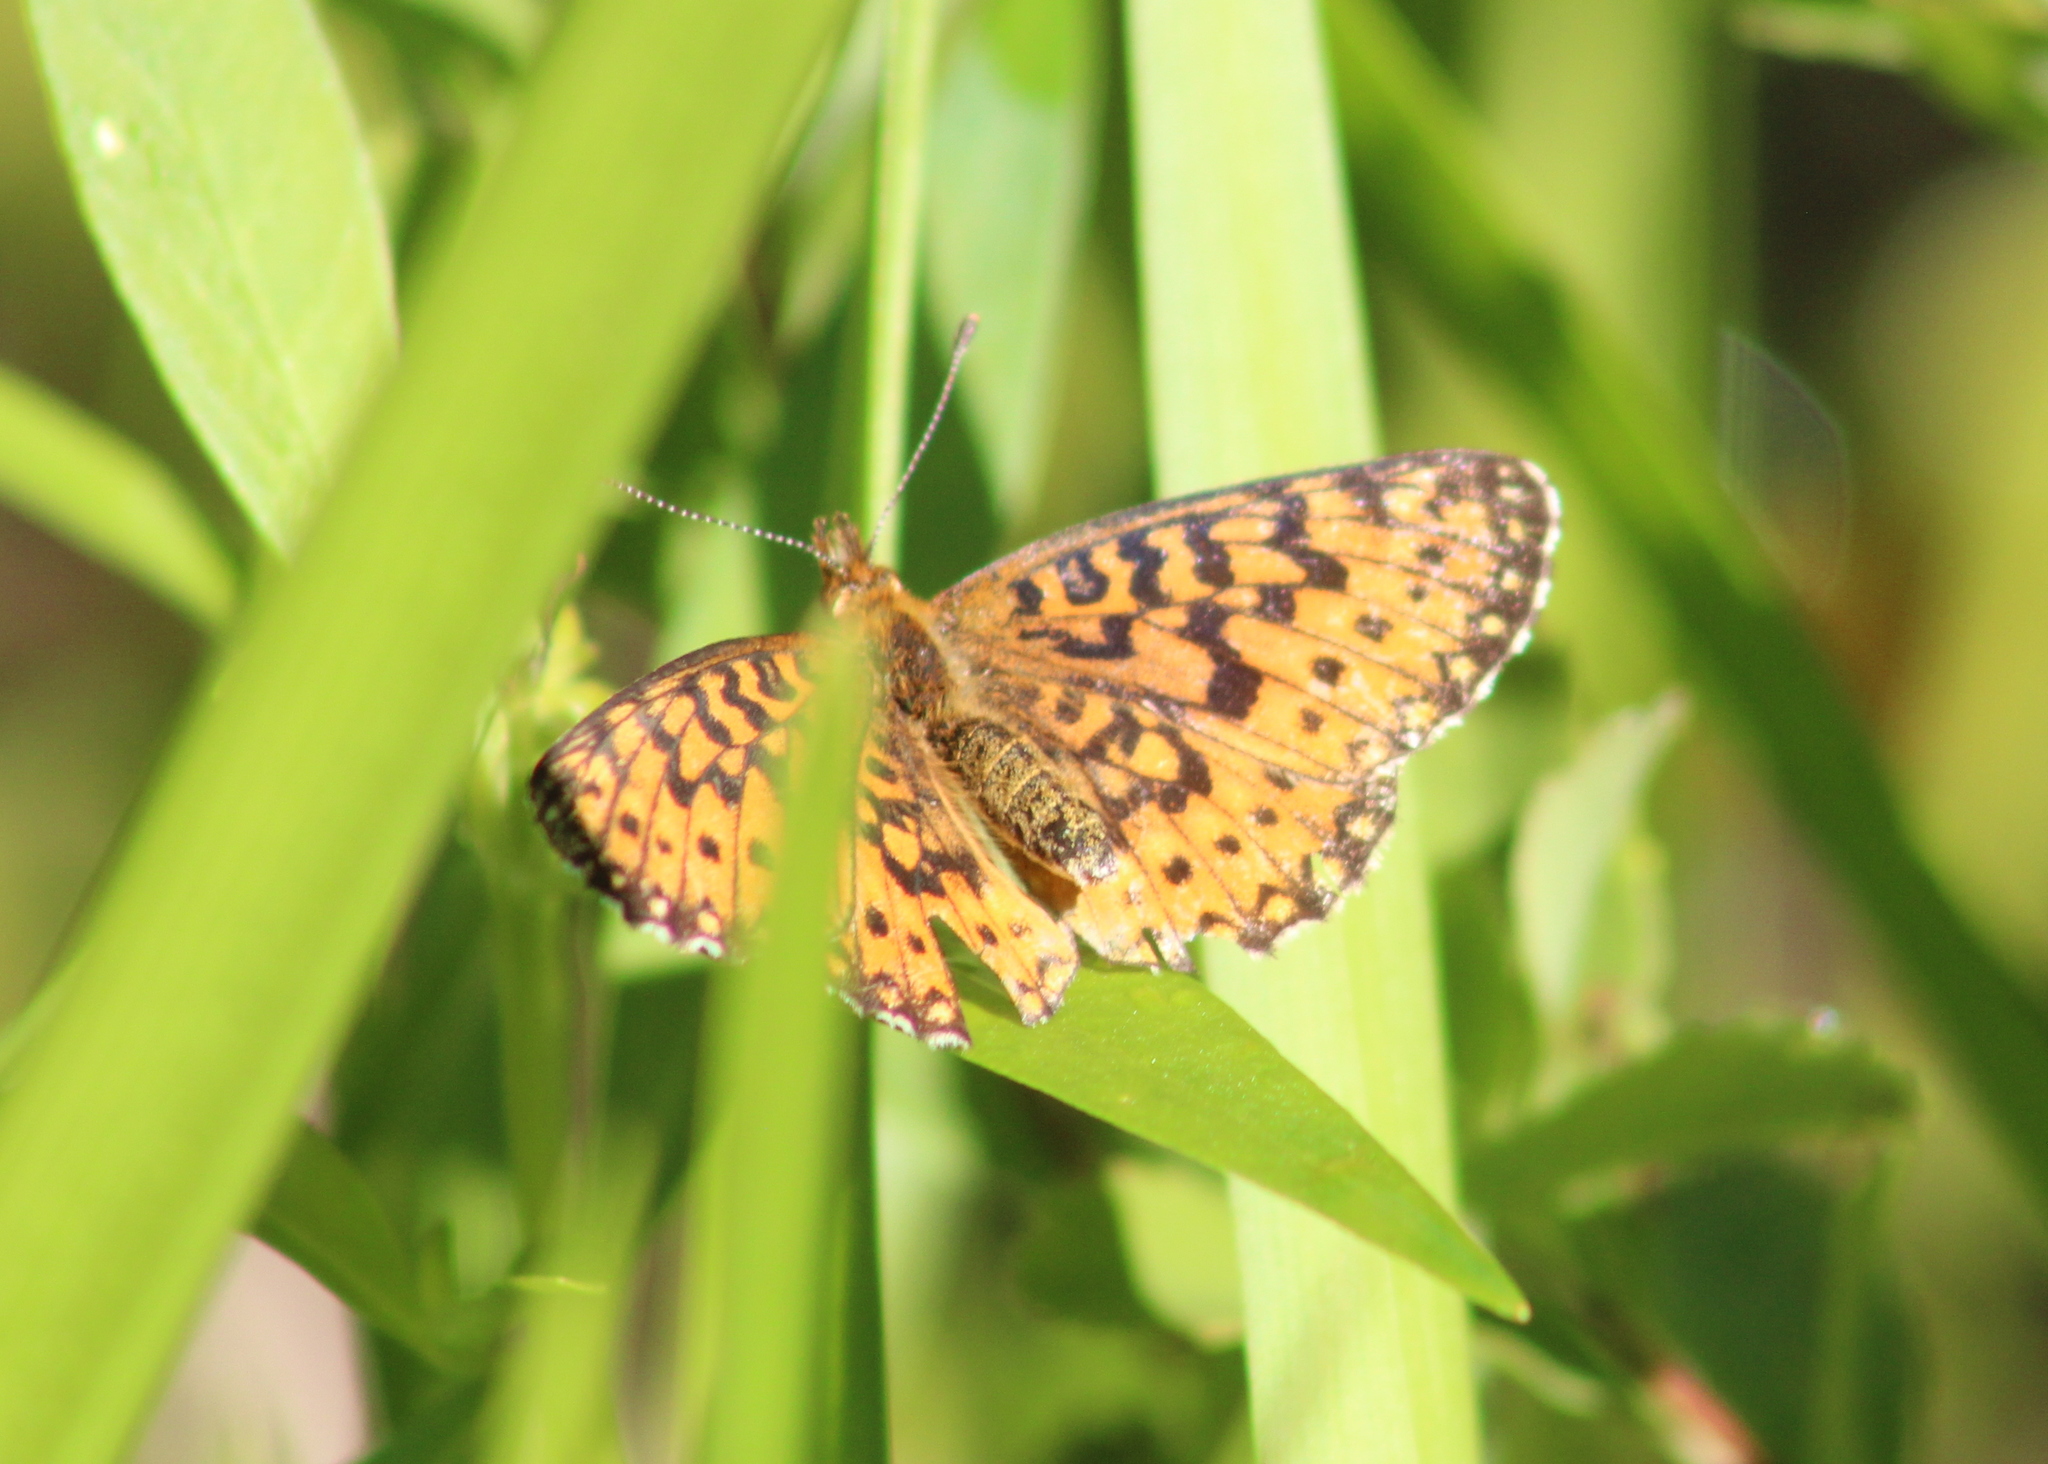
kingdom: Animalia
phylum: Arthropoda
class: Insecta
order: Lepidoptera
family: Nymphalidae
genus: Boloria
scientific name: Boloria
